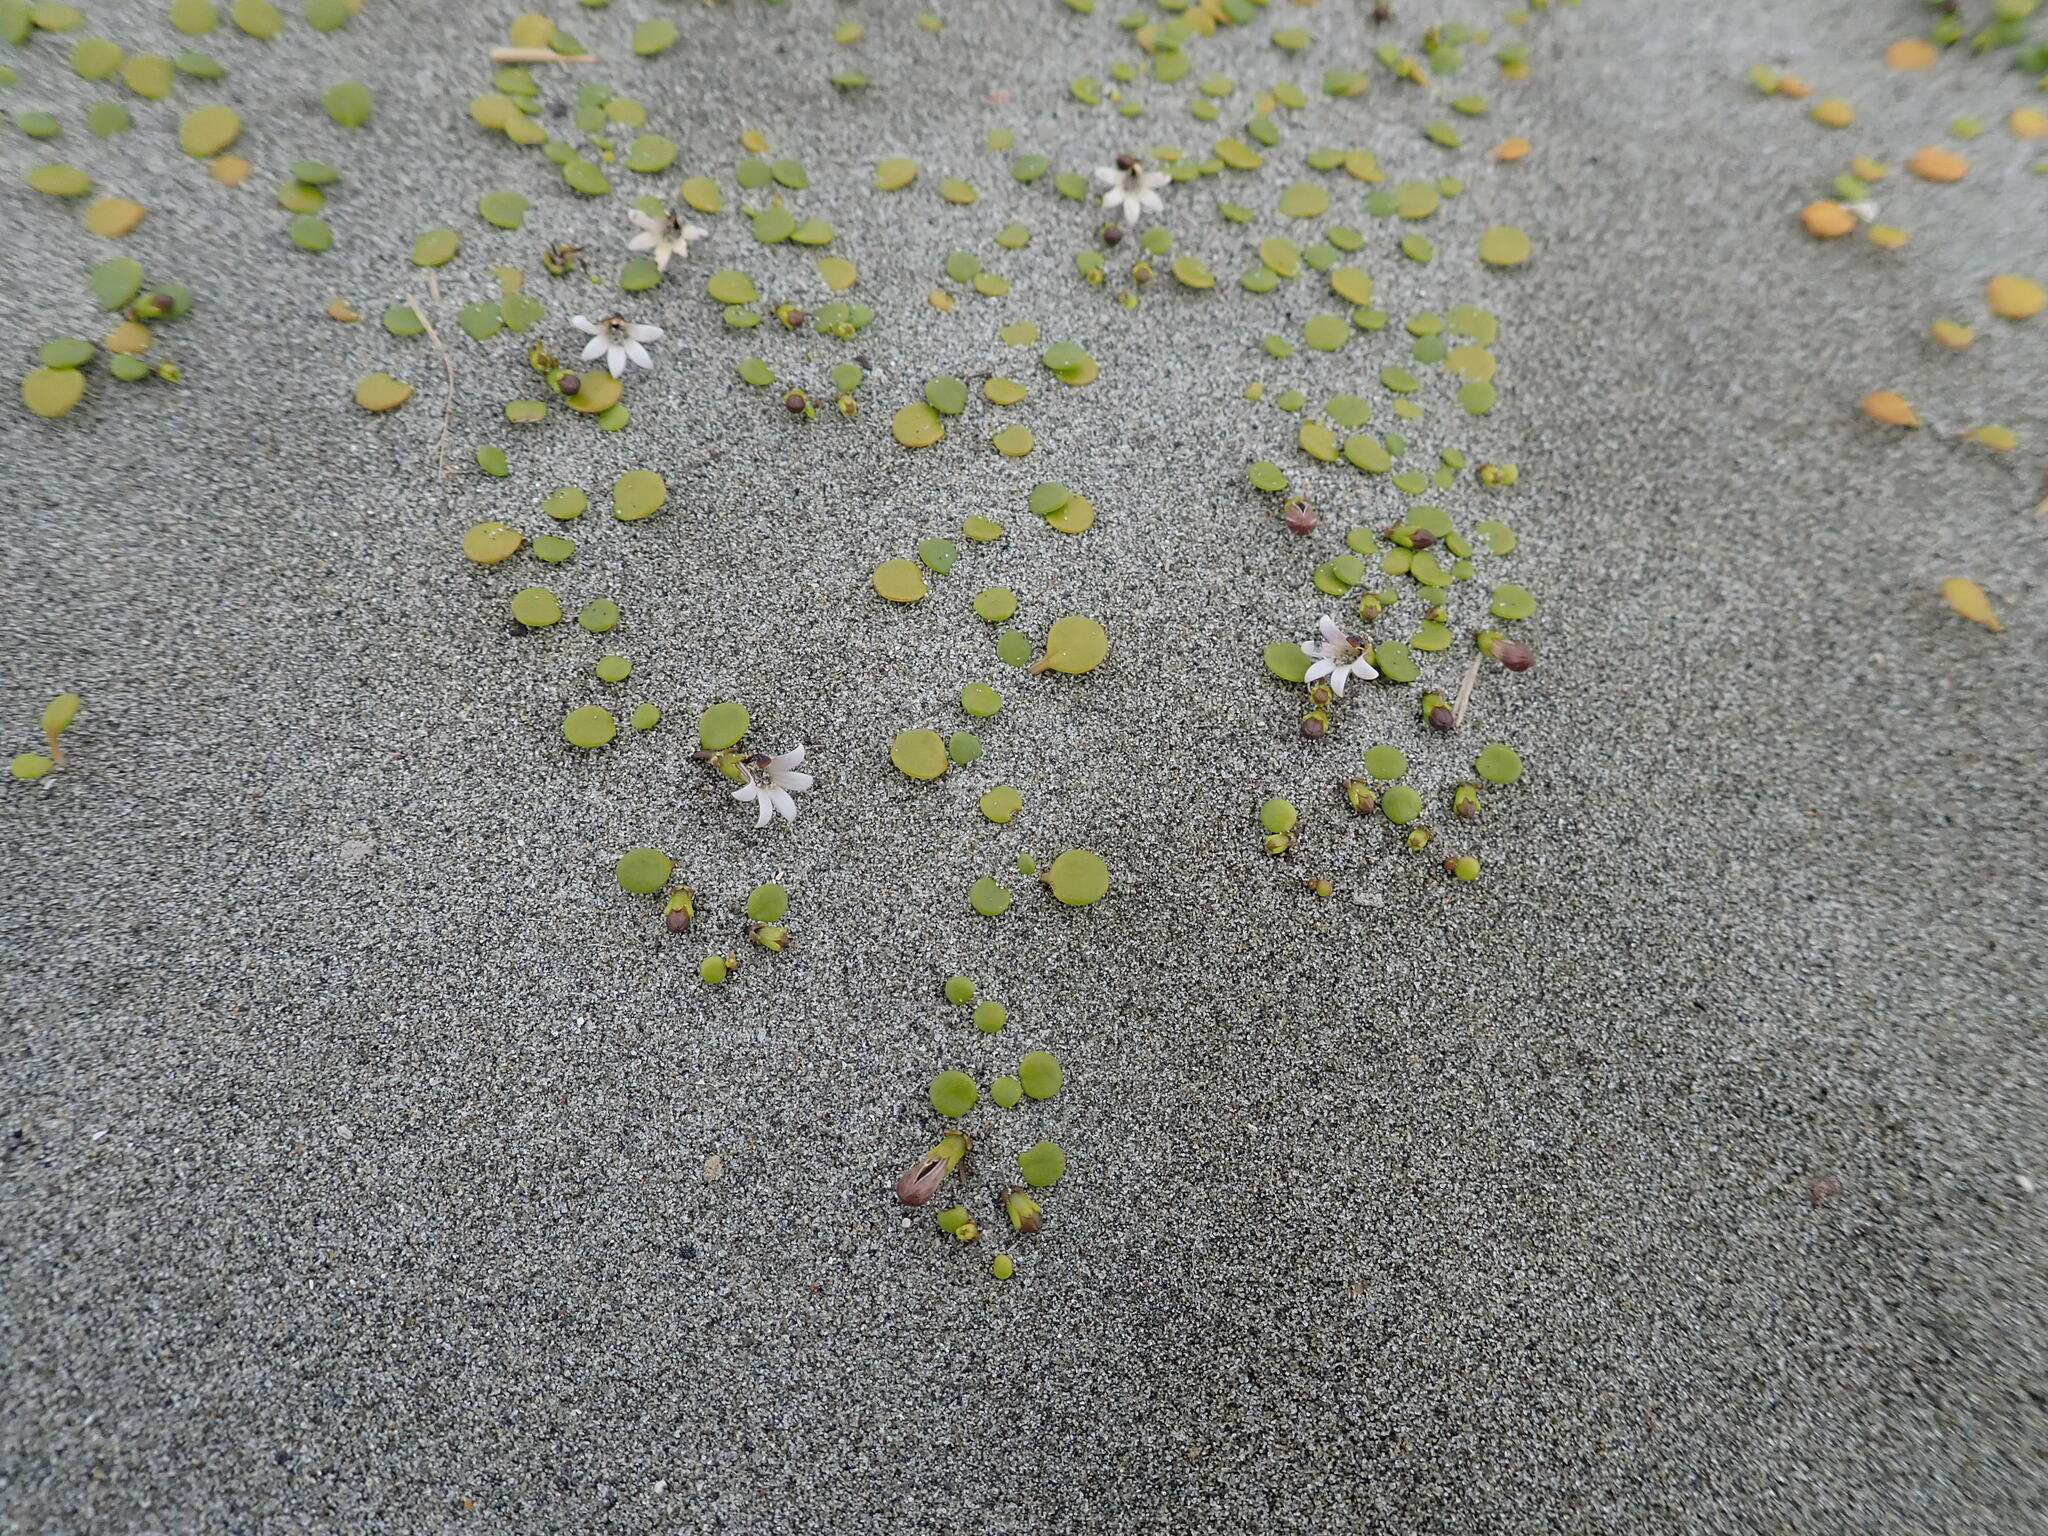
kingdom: Plantae
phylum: Tracheophyta
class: Magnoliopsida
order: Asterales
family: Goodeniaceae
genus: Goodenia
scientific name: Goodenia heenanii
